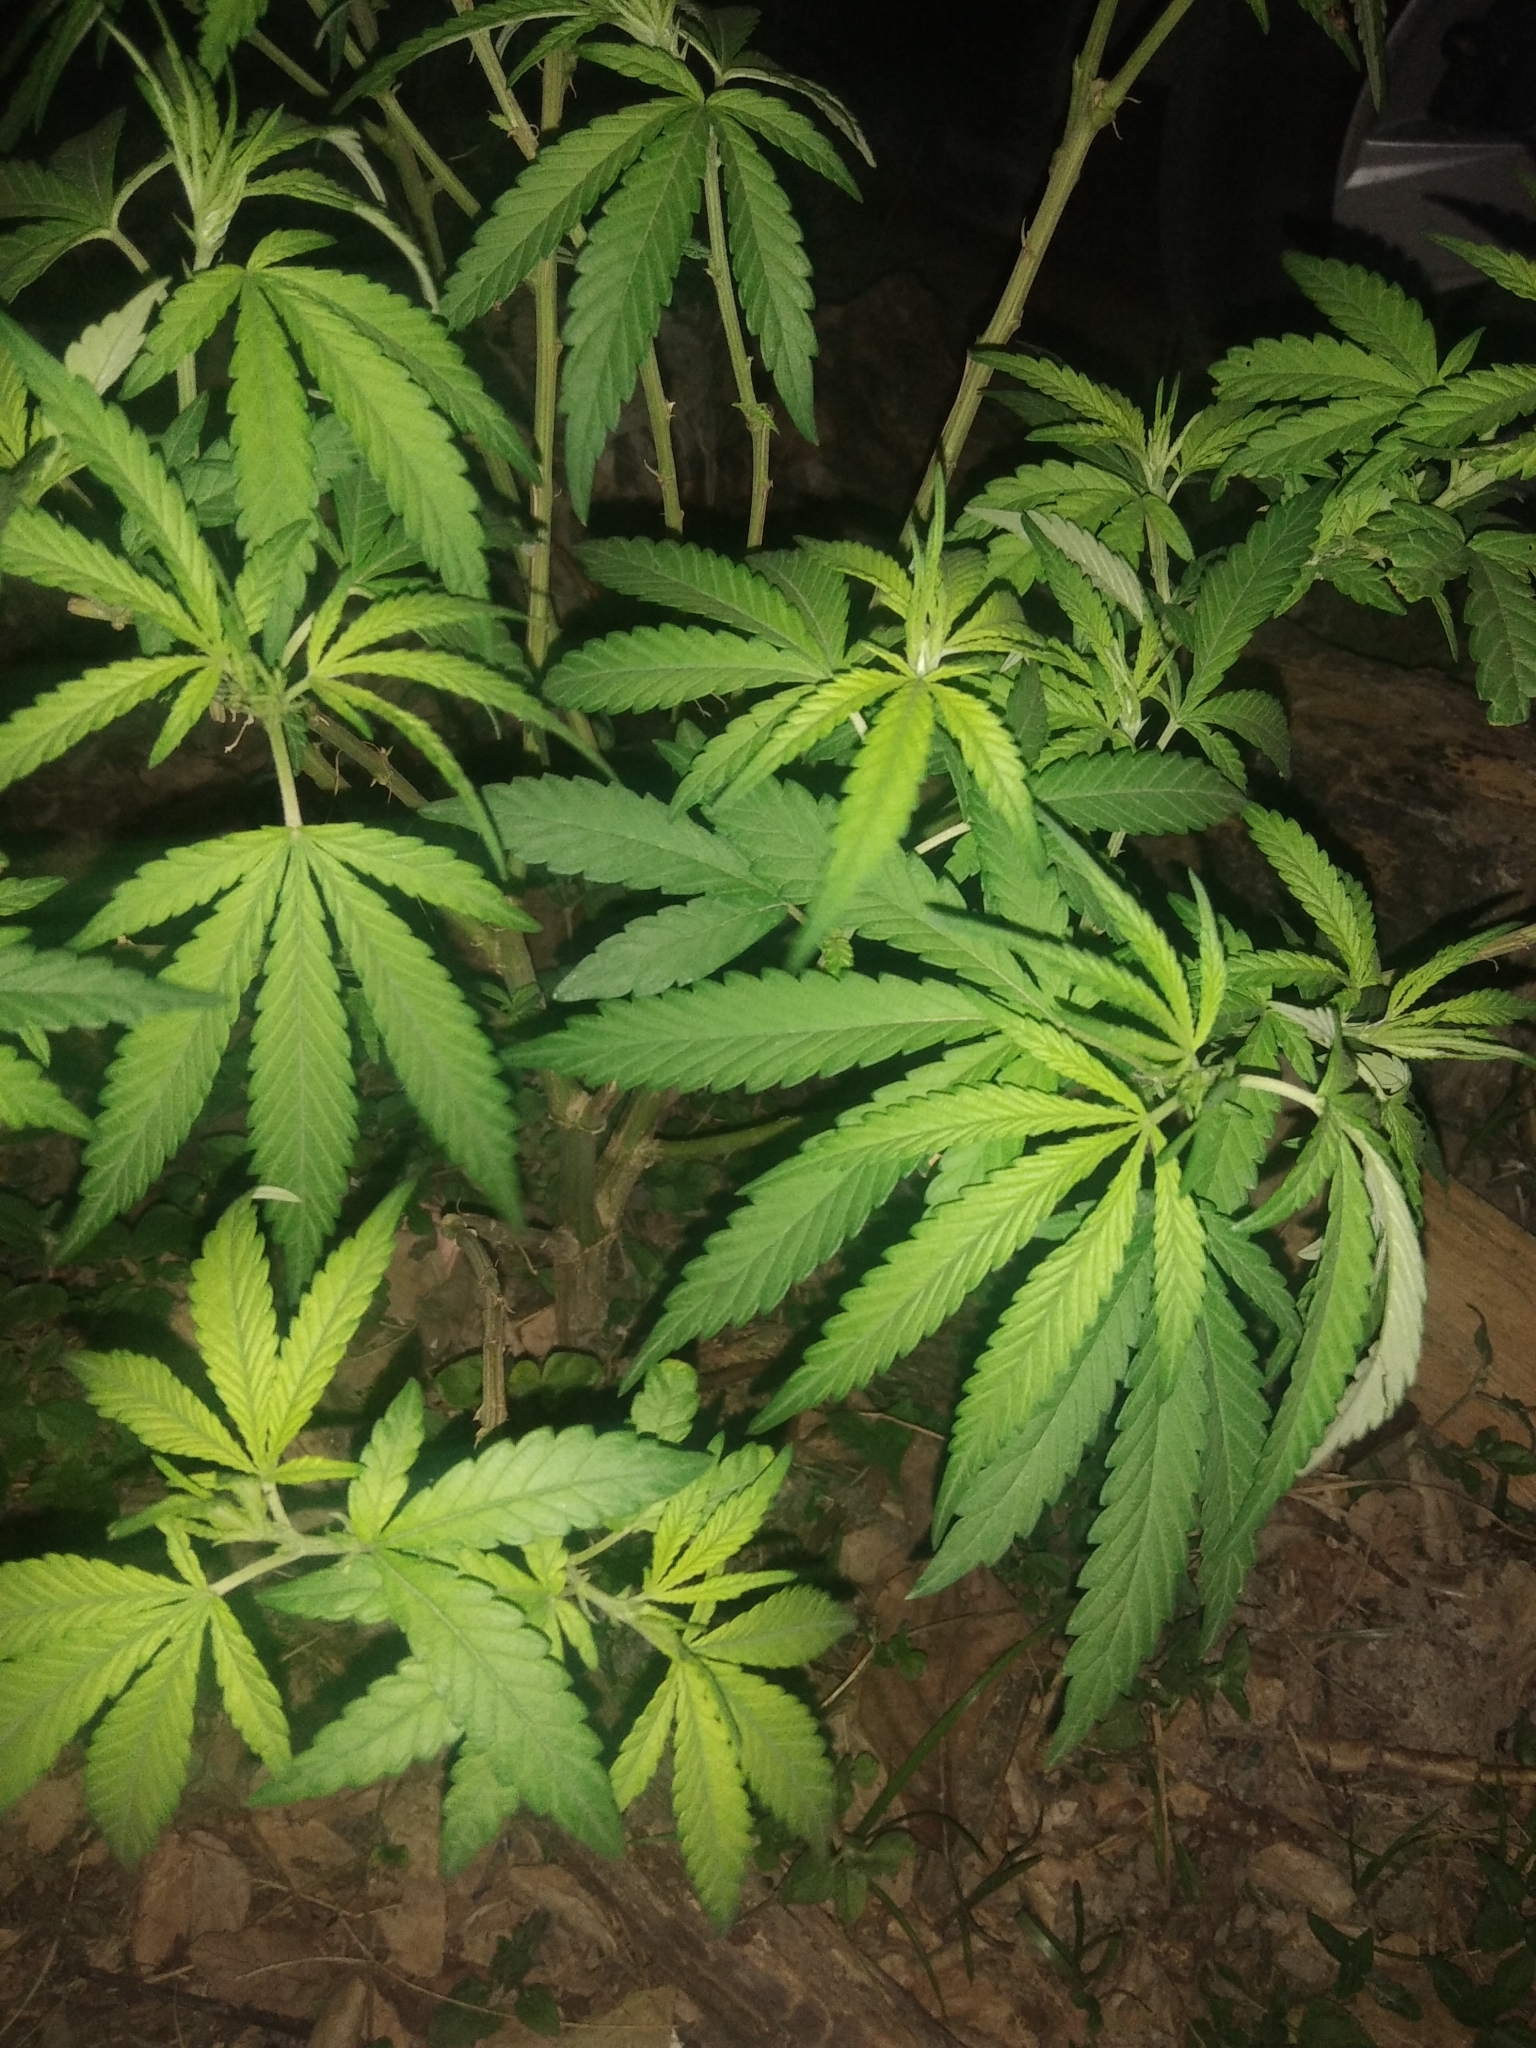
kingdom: Plantae
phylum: Tracheophyta
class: Magnoliopsida
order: Rosales
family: Cannabaceae
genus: Cannabis
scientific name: Cannabis sativa
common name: Hemp
